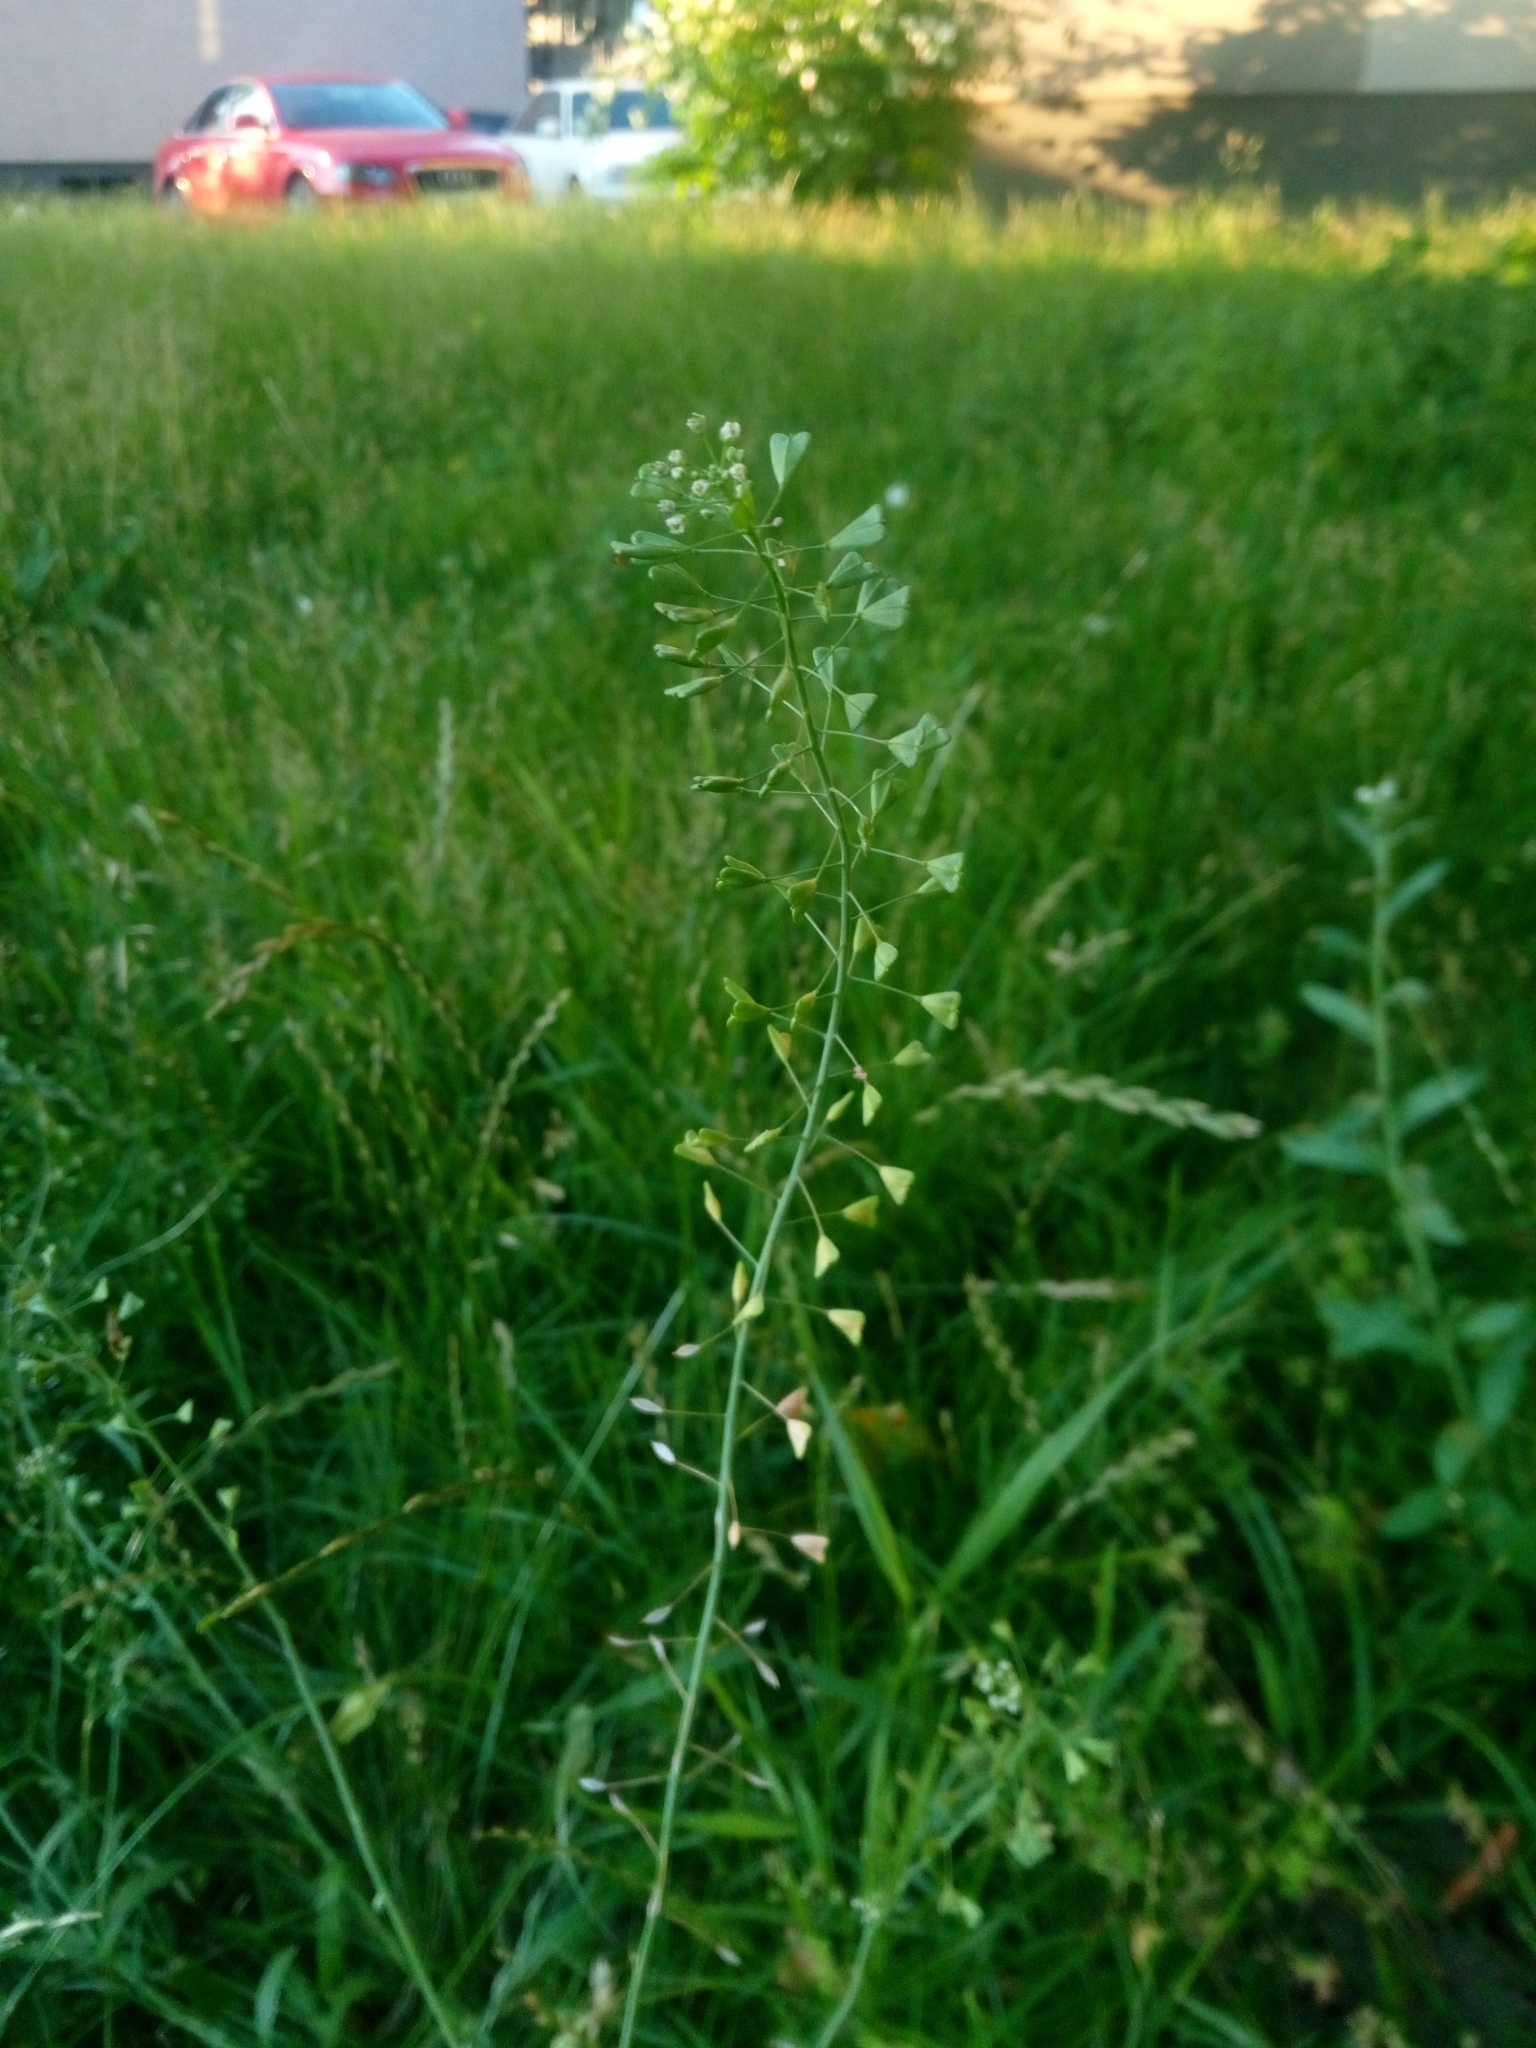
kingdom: Plantae
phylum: Tracheophyta
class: Magnoliopsida
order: Brassicales
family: Brassicaceae
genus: Capsella
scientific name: Capsella bursa-pastoris
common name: Shepherd's purse
